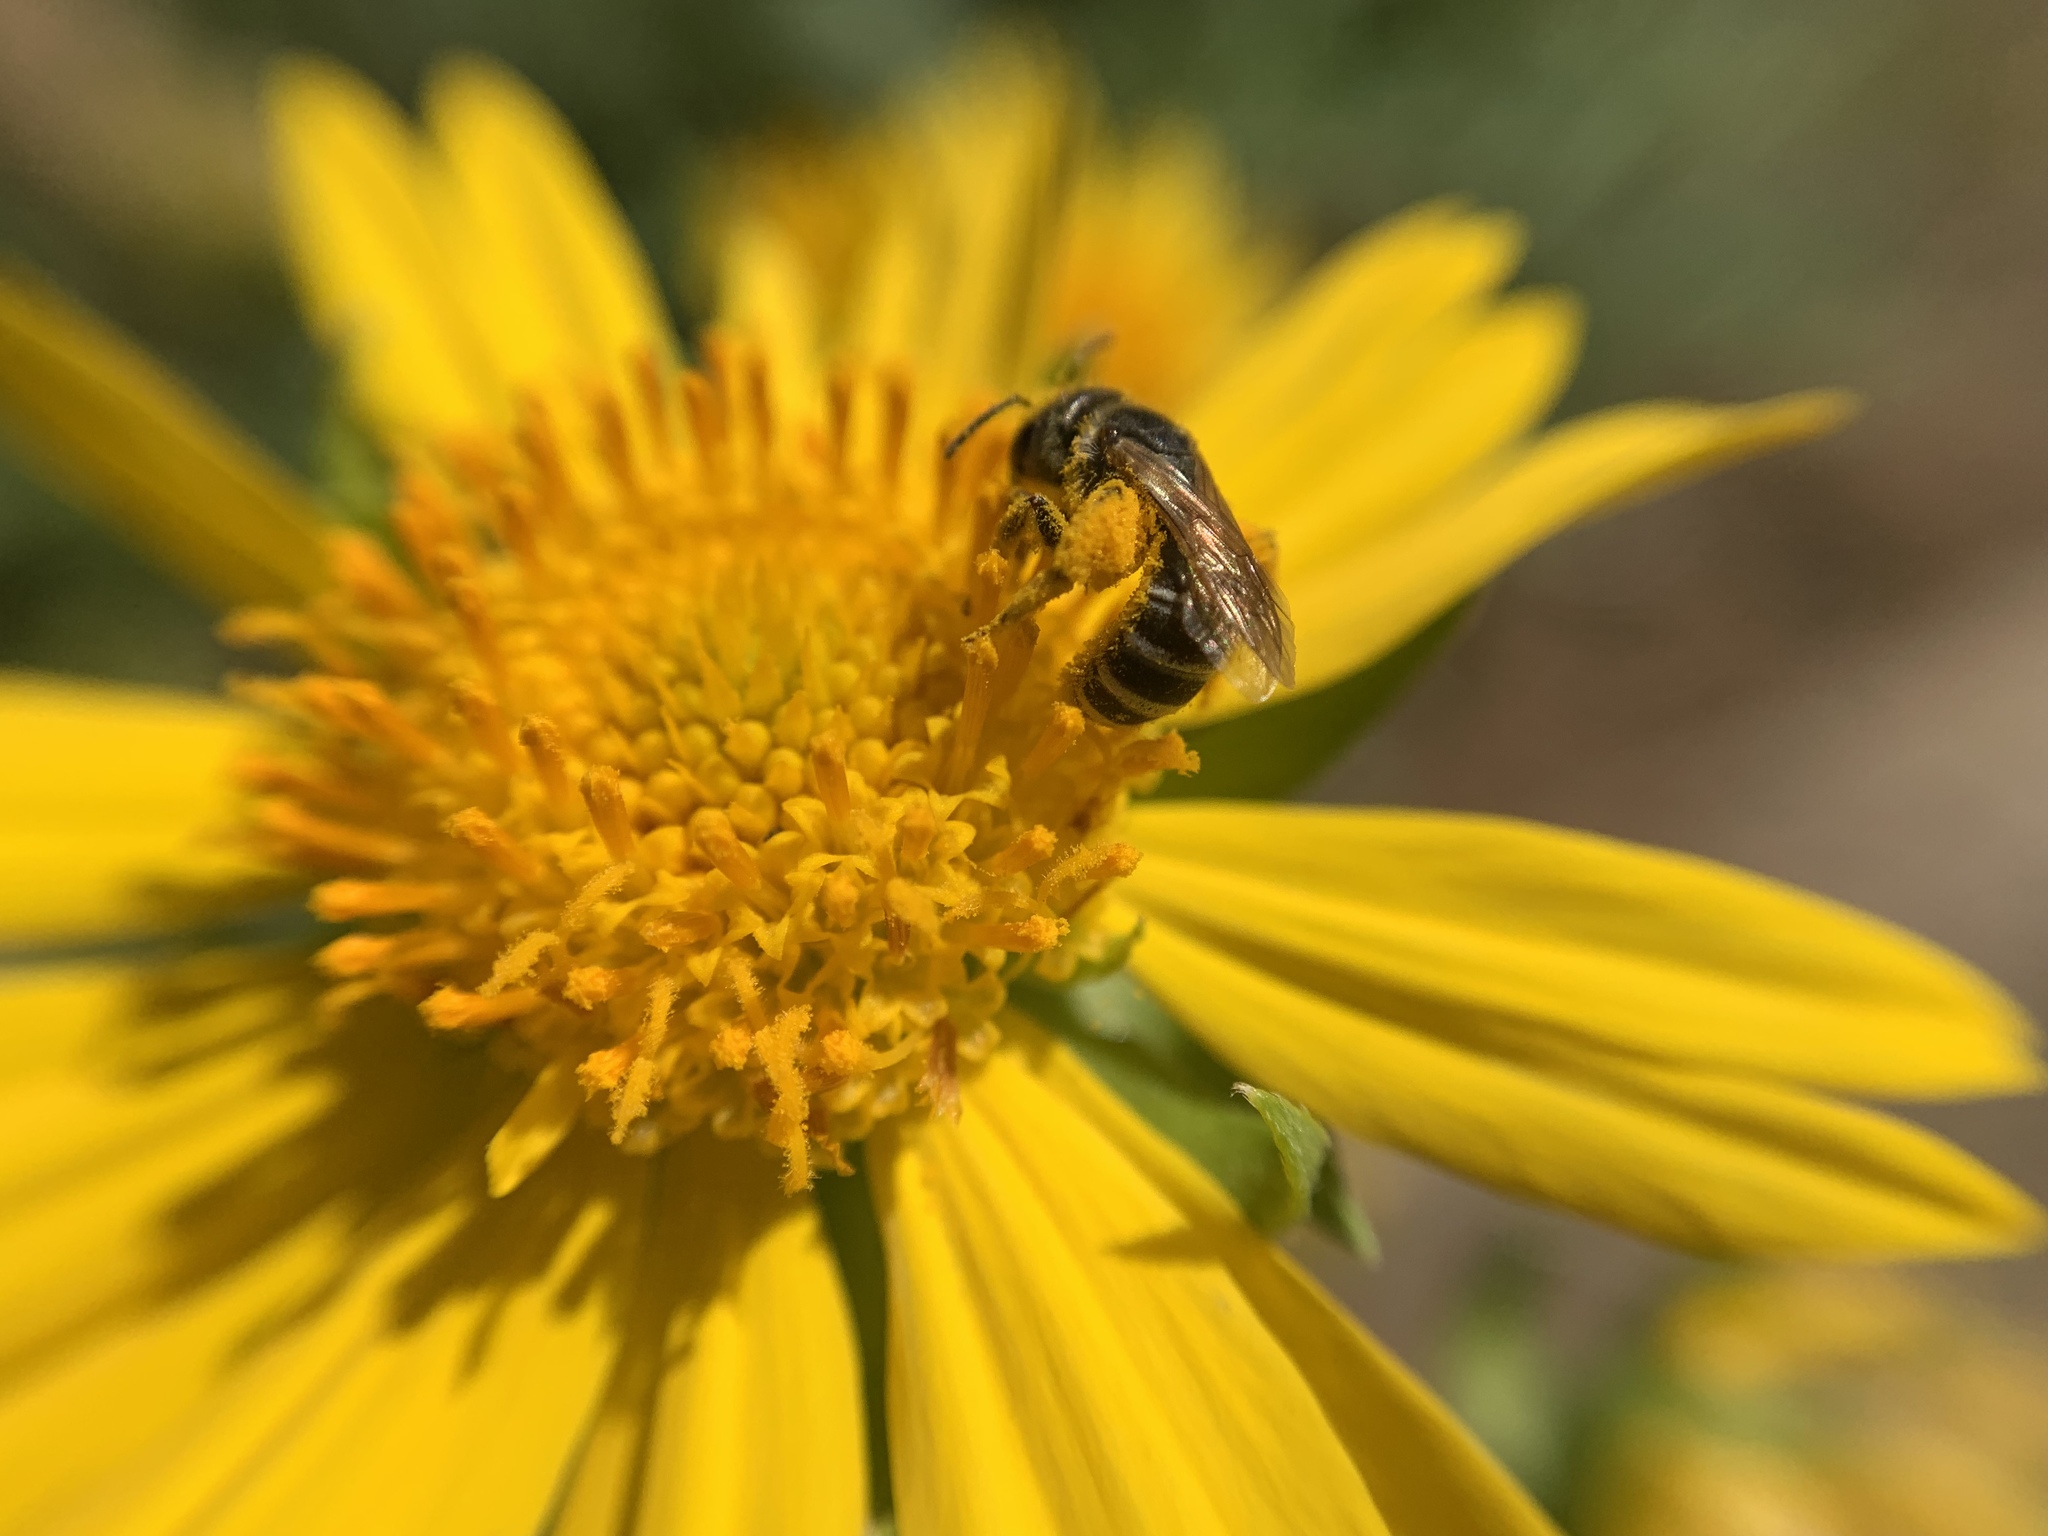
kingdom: Animalia
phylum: Arthropoda
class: Insecta
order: Hymenoptera
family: Halictidae
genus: Halictus
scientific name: Halictus ligatus
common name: Ligated furrow bee
